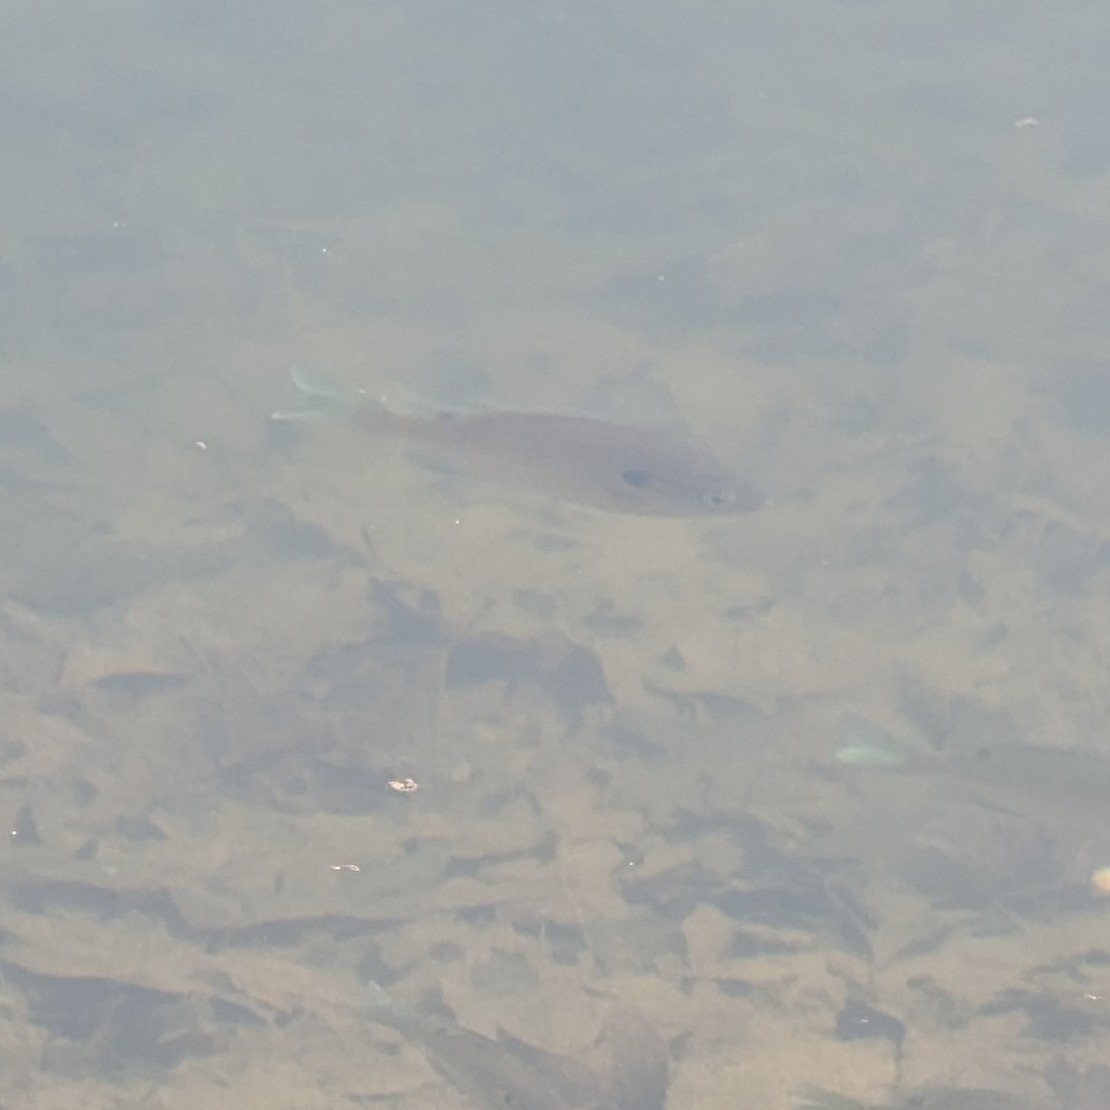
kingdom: Animalia
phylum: Chordata
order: Perciformes
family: Centrarchidae
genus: Lepomis
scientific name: Lepomis macrochirus
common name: Bluegill
